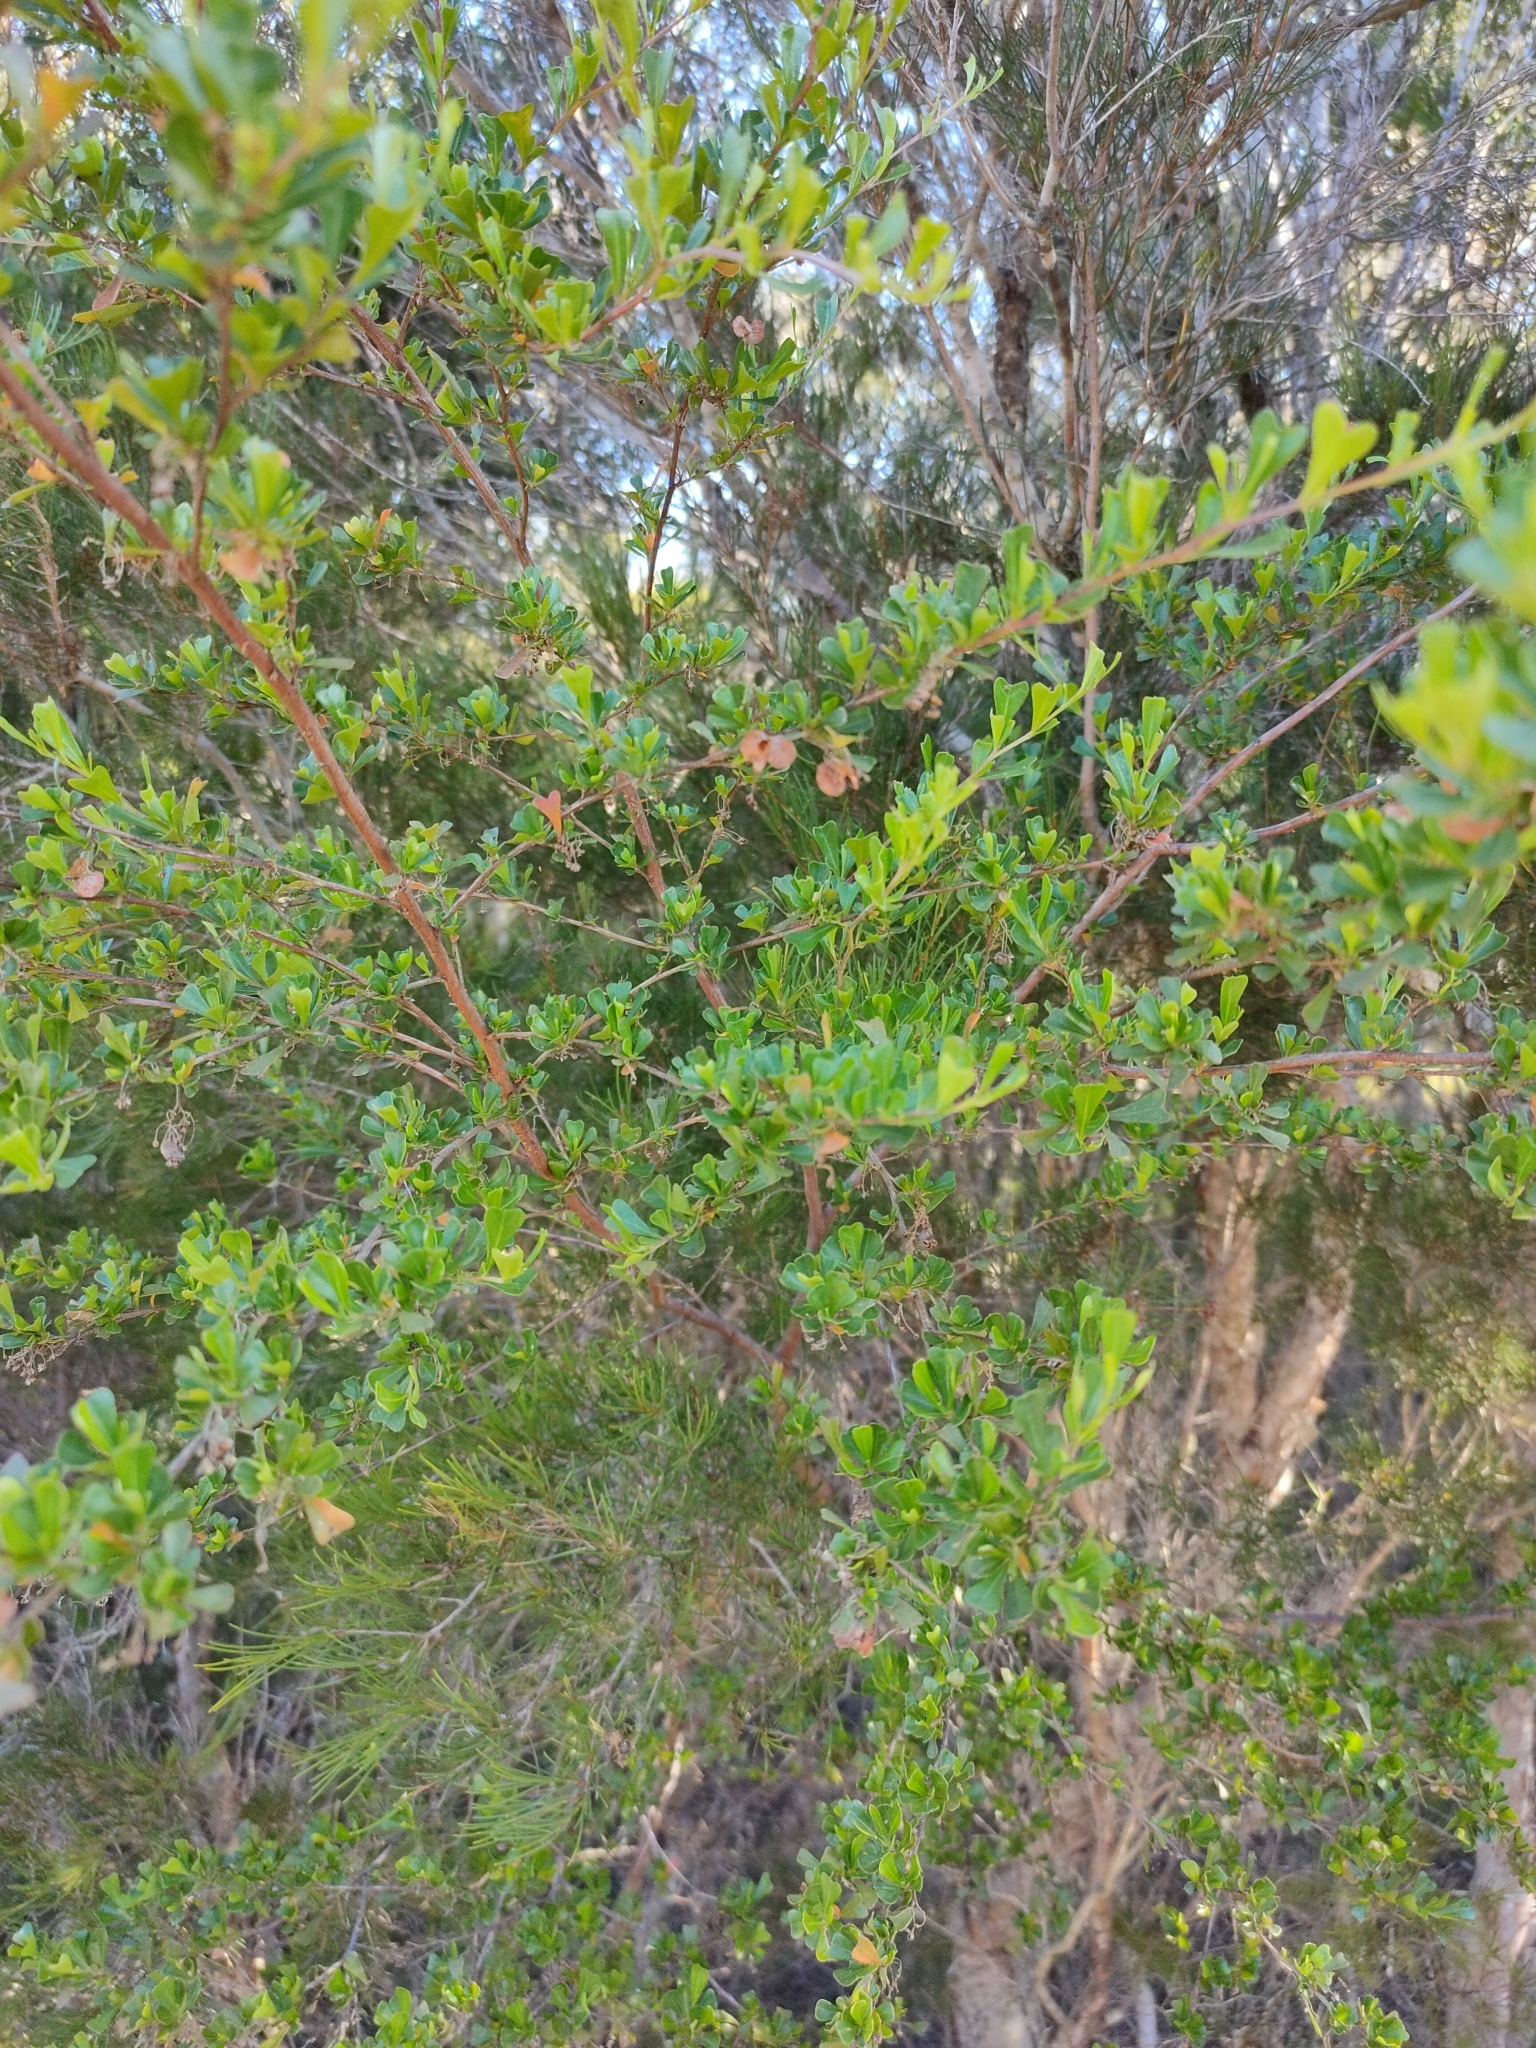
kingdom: Plantae
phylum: Tracheophyta
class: Magnoliopsida
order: Sapindales
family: Sapindaceae
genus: Dodonaea
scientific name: Dodonaea viscosa
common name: Hopbush
